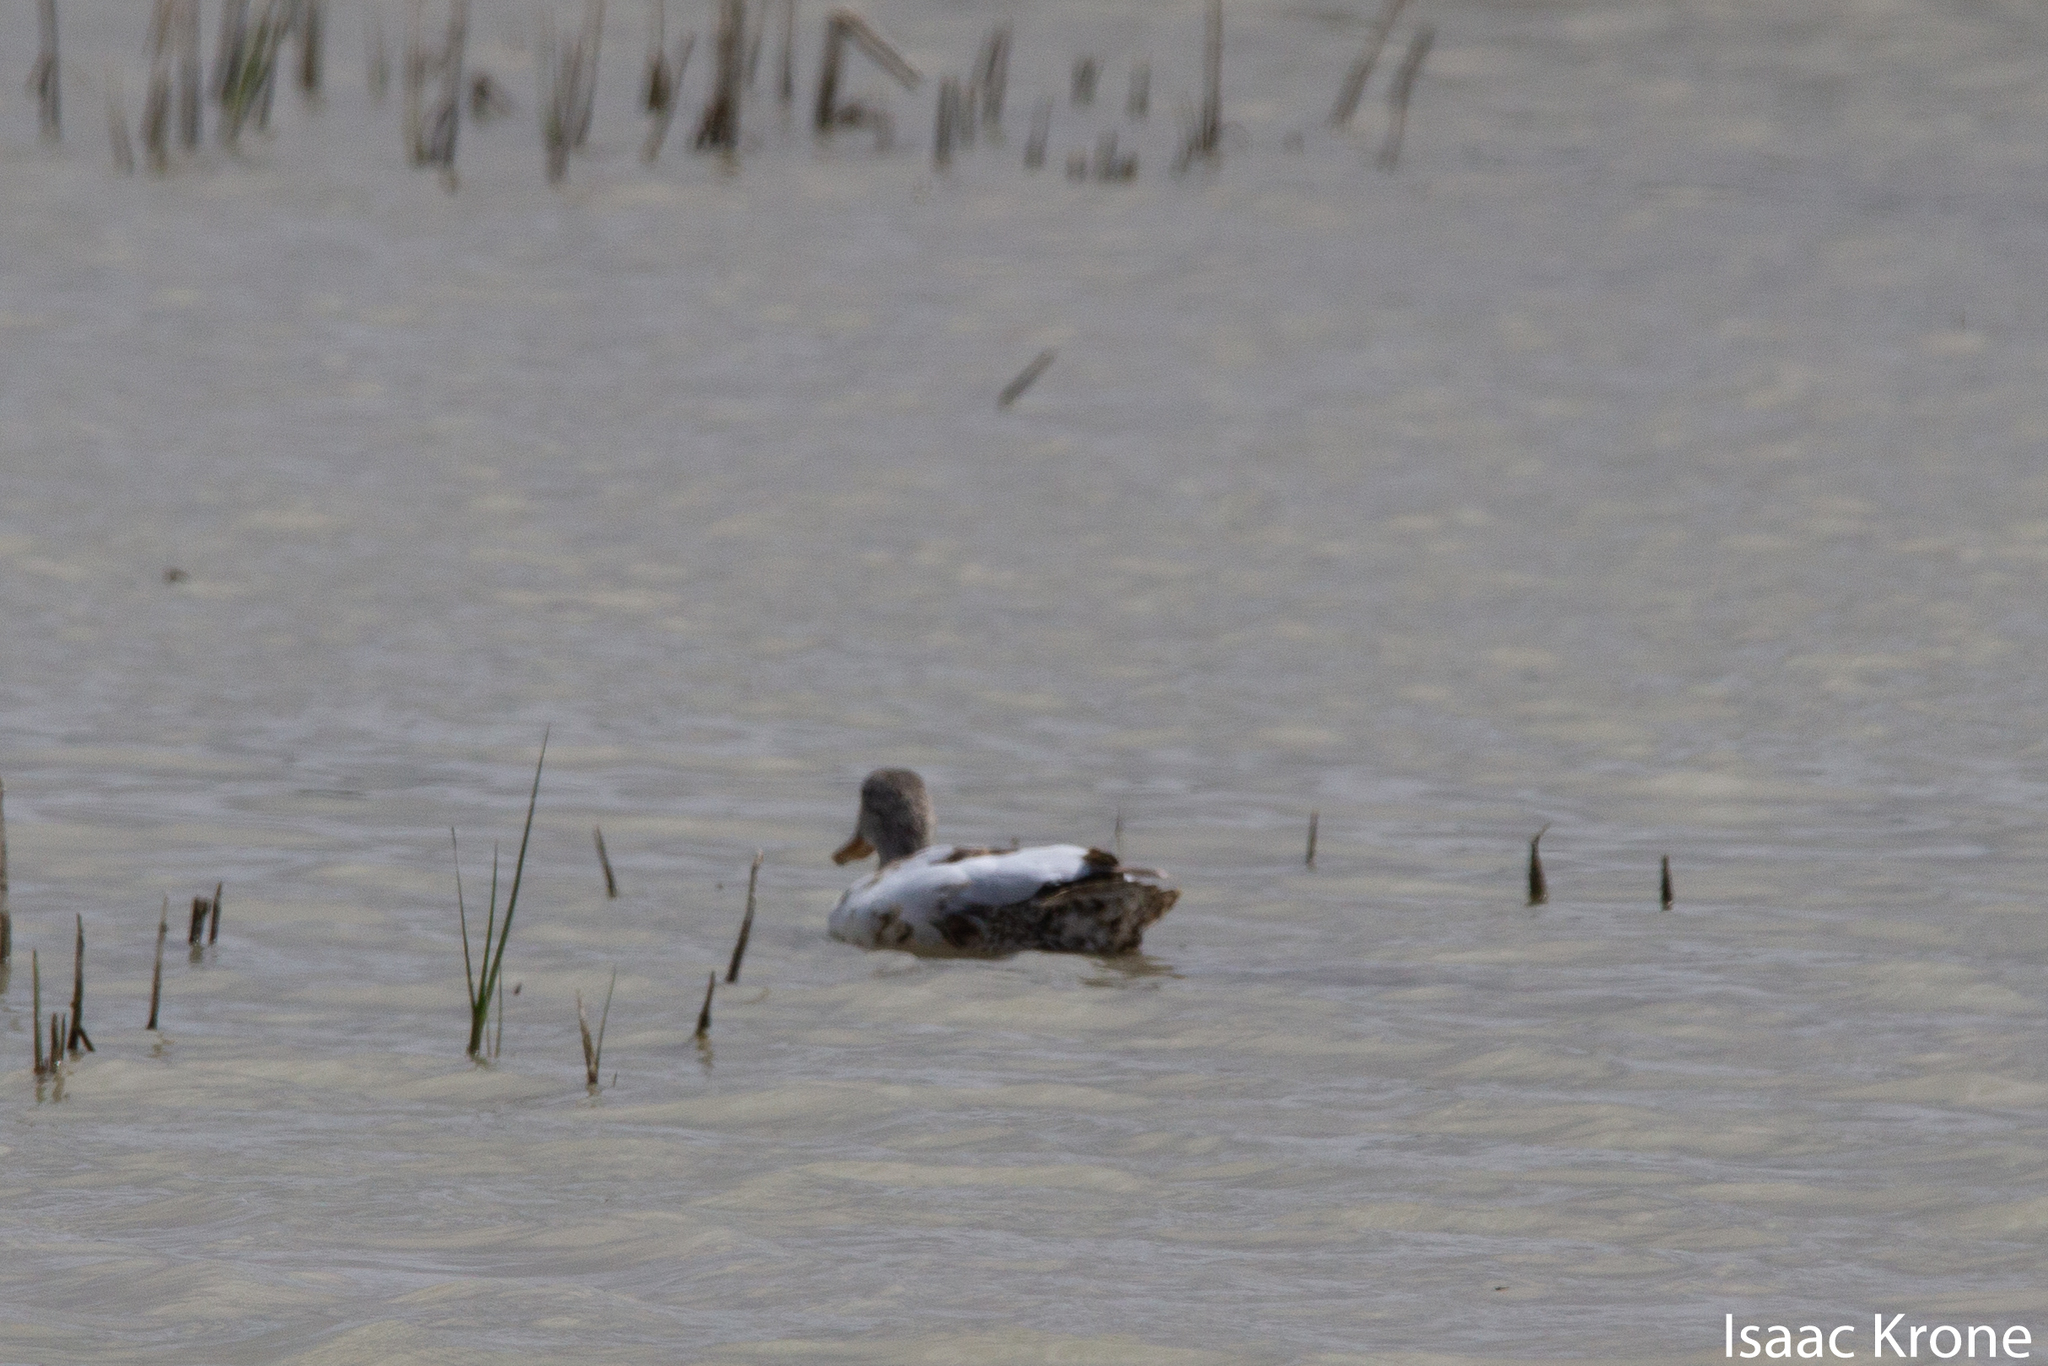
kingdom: Animalia
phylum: Chordata
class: Aves
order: Anseriformes
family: Anatidae
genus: Anas
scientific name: Anas platyrhynchos
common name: Mallard
